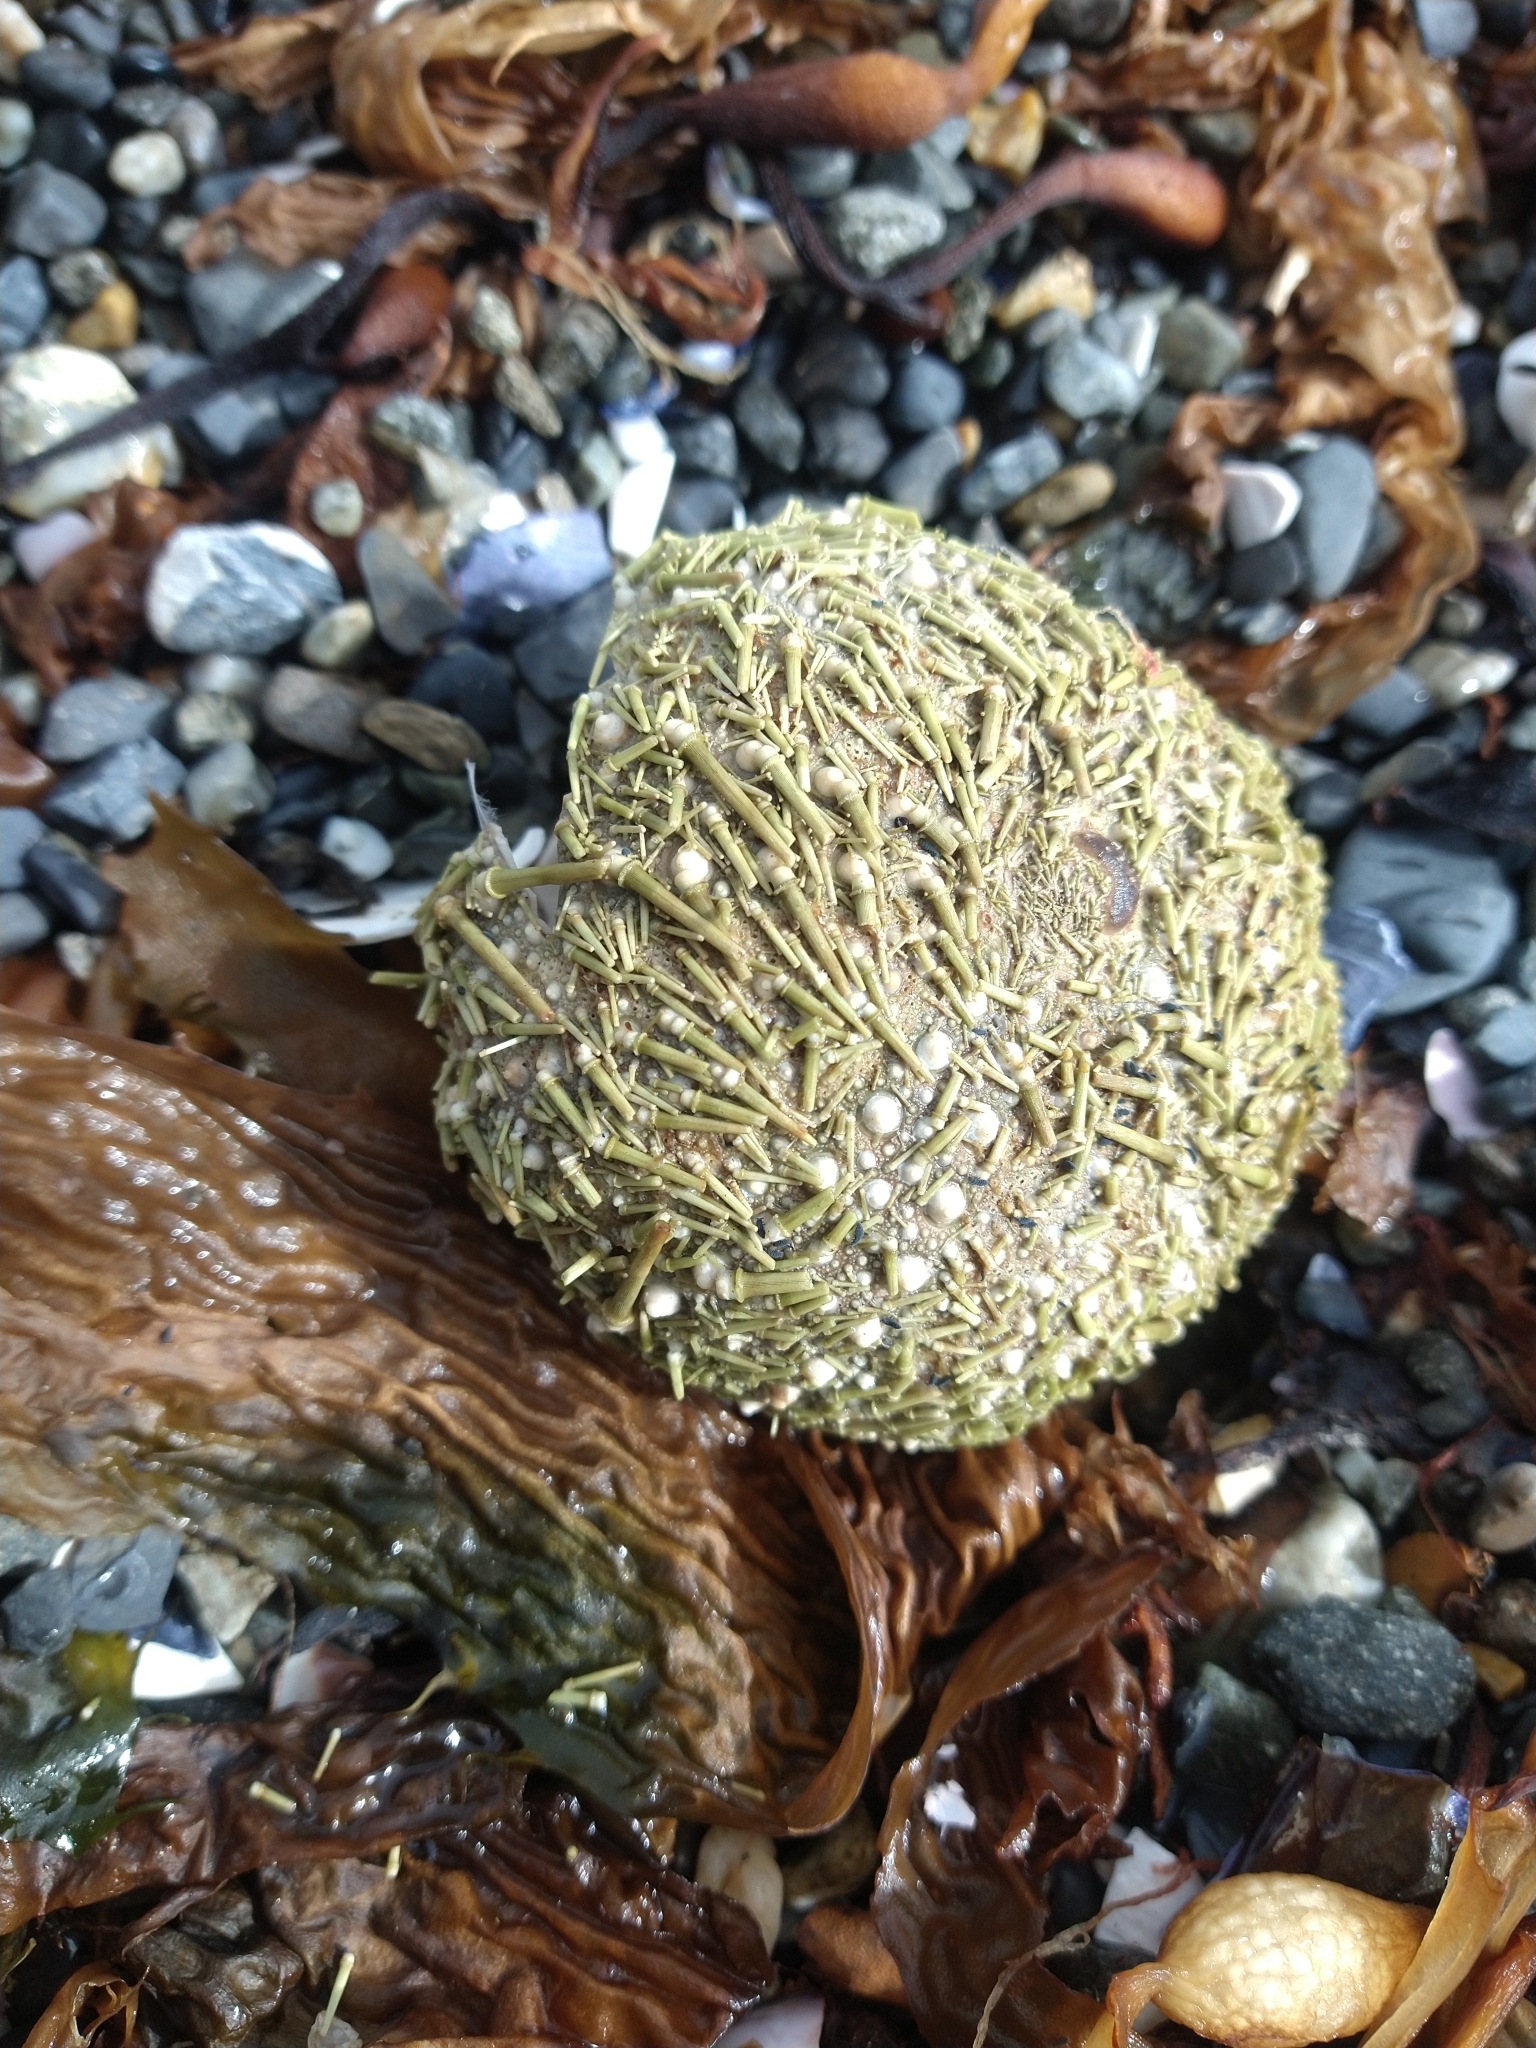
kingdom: Animalia
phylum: Echinodermata
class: Echinoidea
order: Camarodonta
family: Parechinidae
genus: Loxechinus
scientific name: Loxechinus albus
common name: Chilean sea urchin
